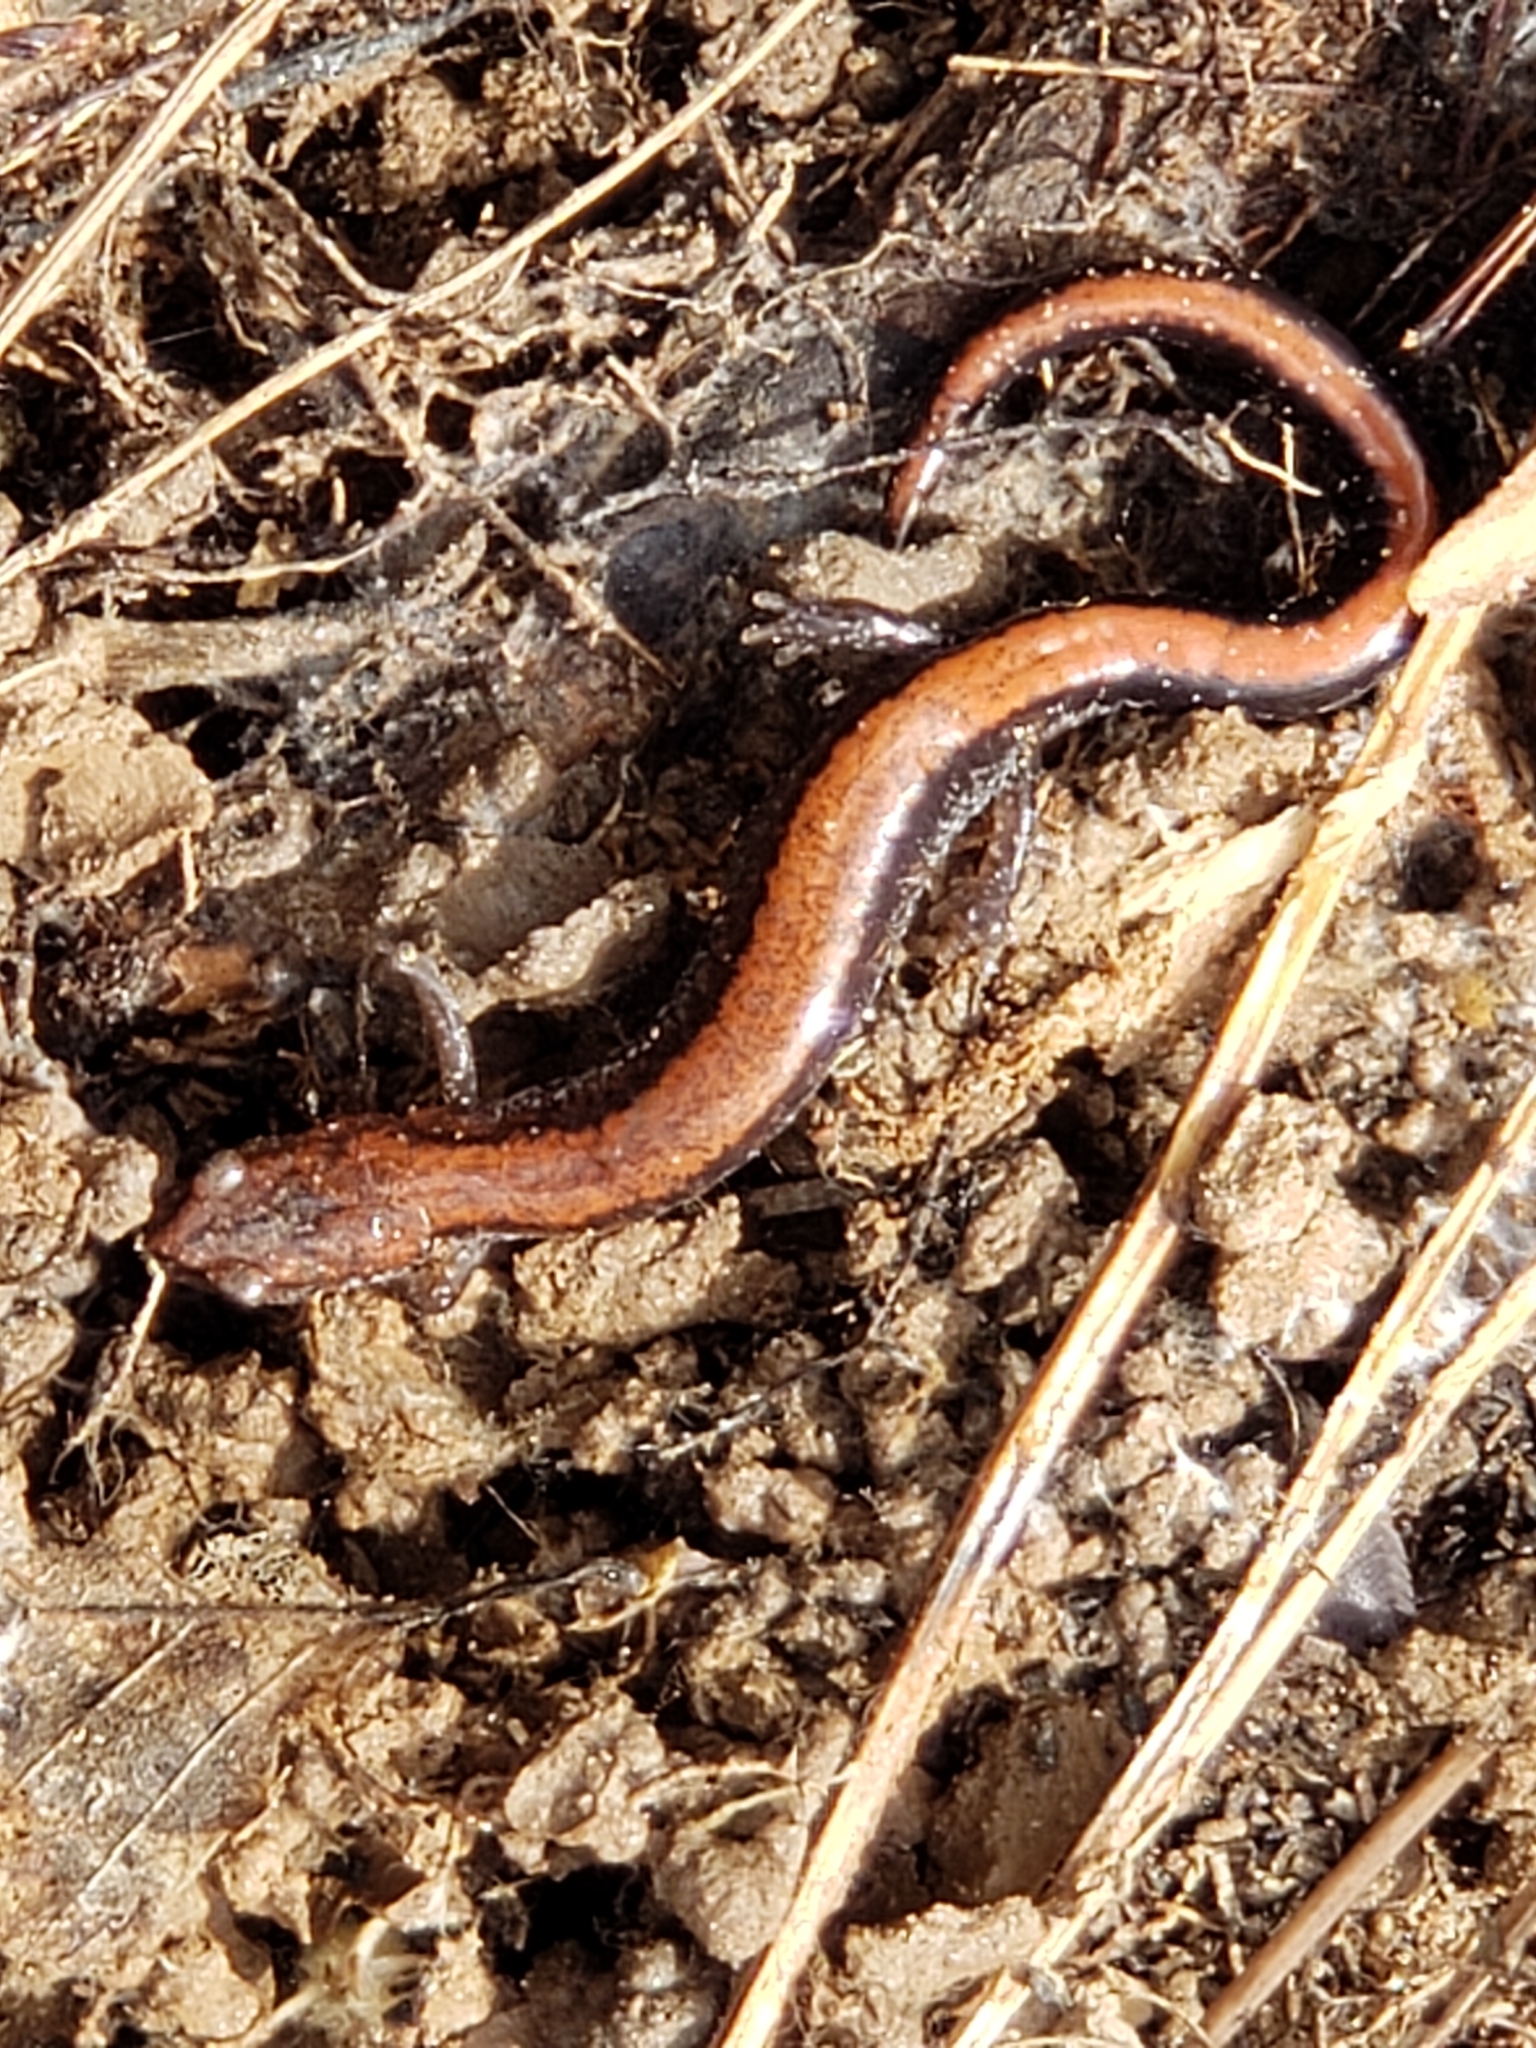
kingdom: Animalia
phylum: Chordata
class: Amphibia
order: Caudata
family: Plethodontidae
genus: Plethodon
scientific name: Plethodon cinereus
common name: Redback salamander
